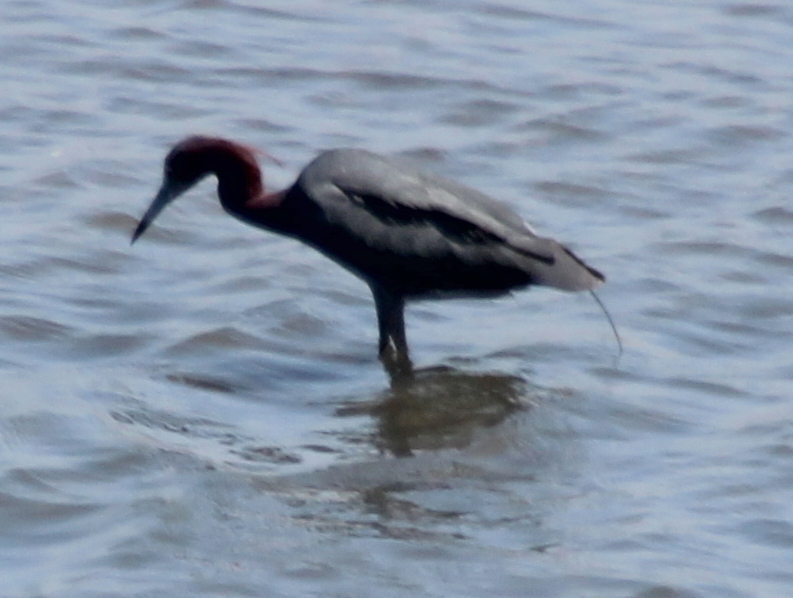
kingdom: Animalia
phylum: Chordata
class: Aves
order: Pelecaniformes
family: Ardeidae
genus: Egretta
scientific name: Egretta caerulea
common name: Little blue heron
